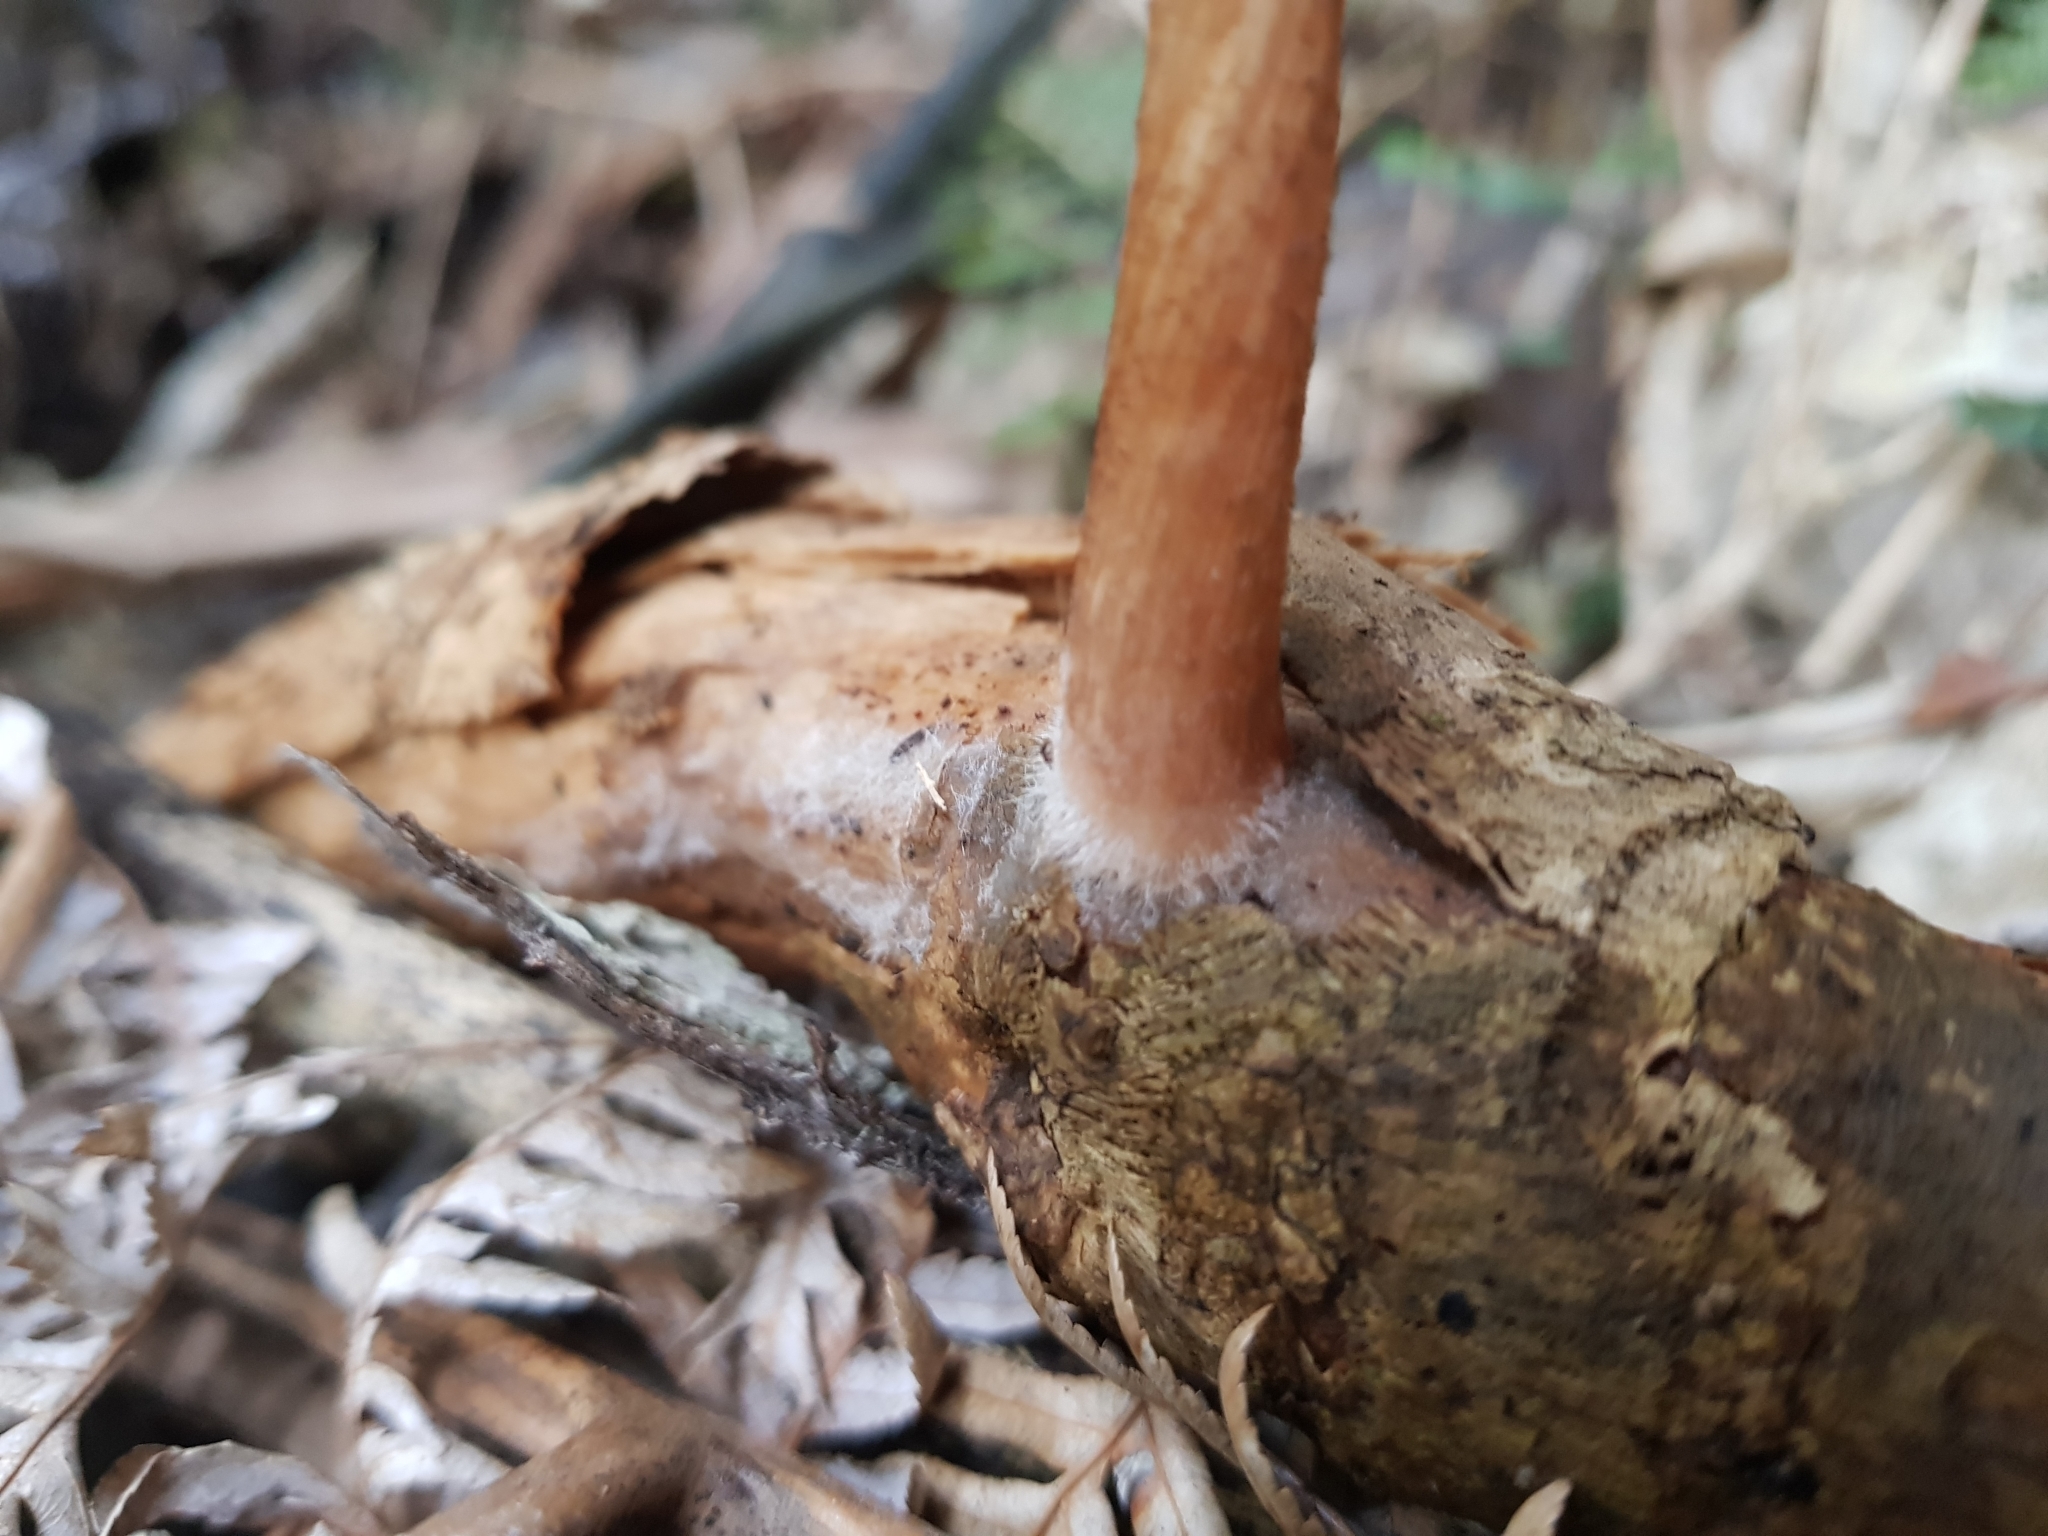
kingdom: Fungi
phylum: Basidiomycota
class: Agaricomycetes
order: Agaricales
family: Pluteaceae
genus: Pluteus
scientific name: Pluteus perroseus
